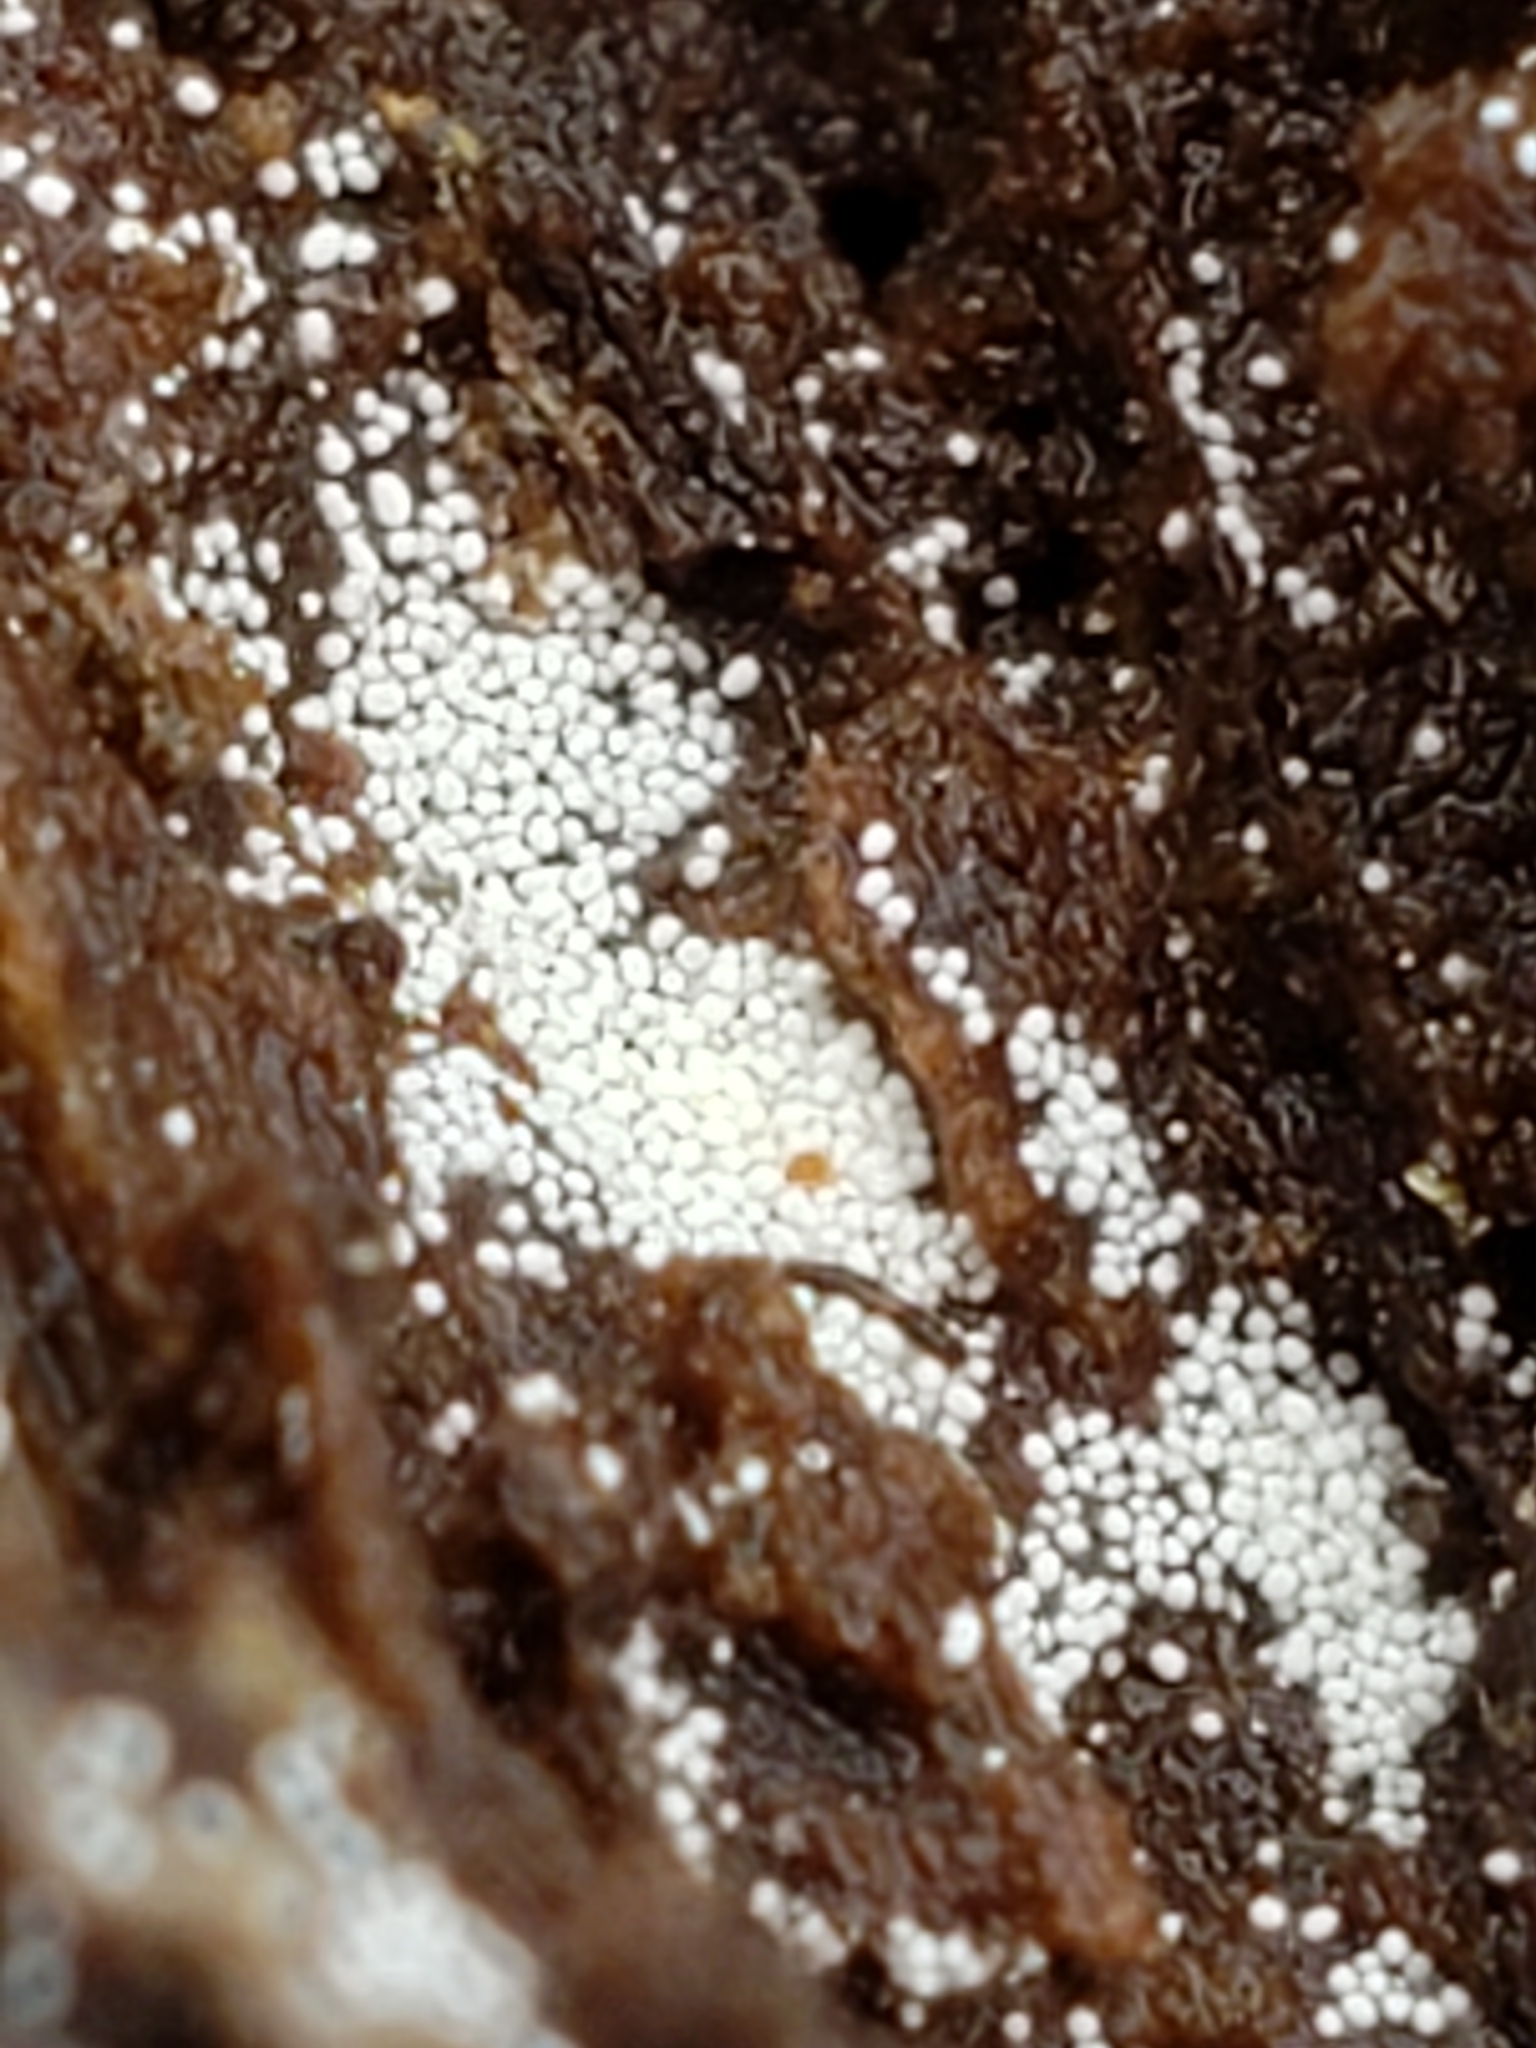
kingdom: Fungi
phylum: Basidiomycota
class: Agaricomycetes
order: Polyporales
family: Meruliaceae
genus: Bulbillomyces
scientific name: Bulbillomyces farinosus
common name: Couscous crust
